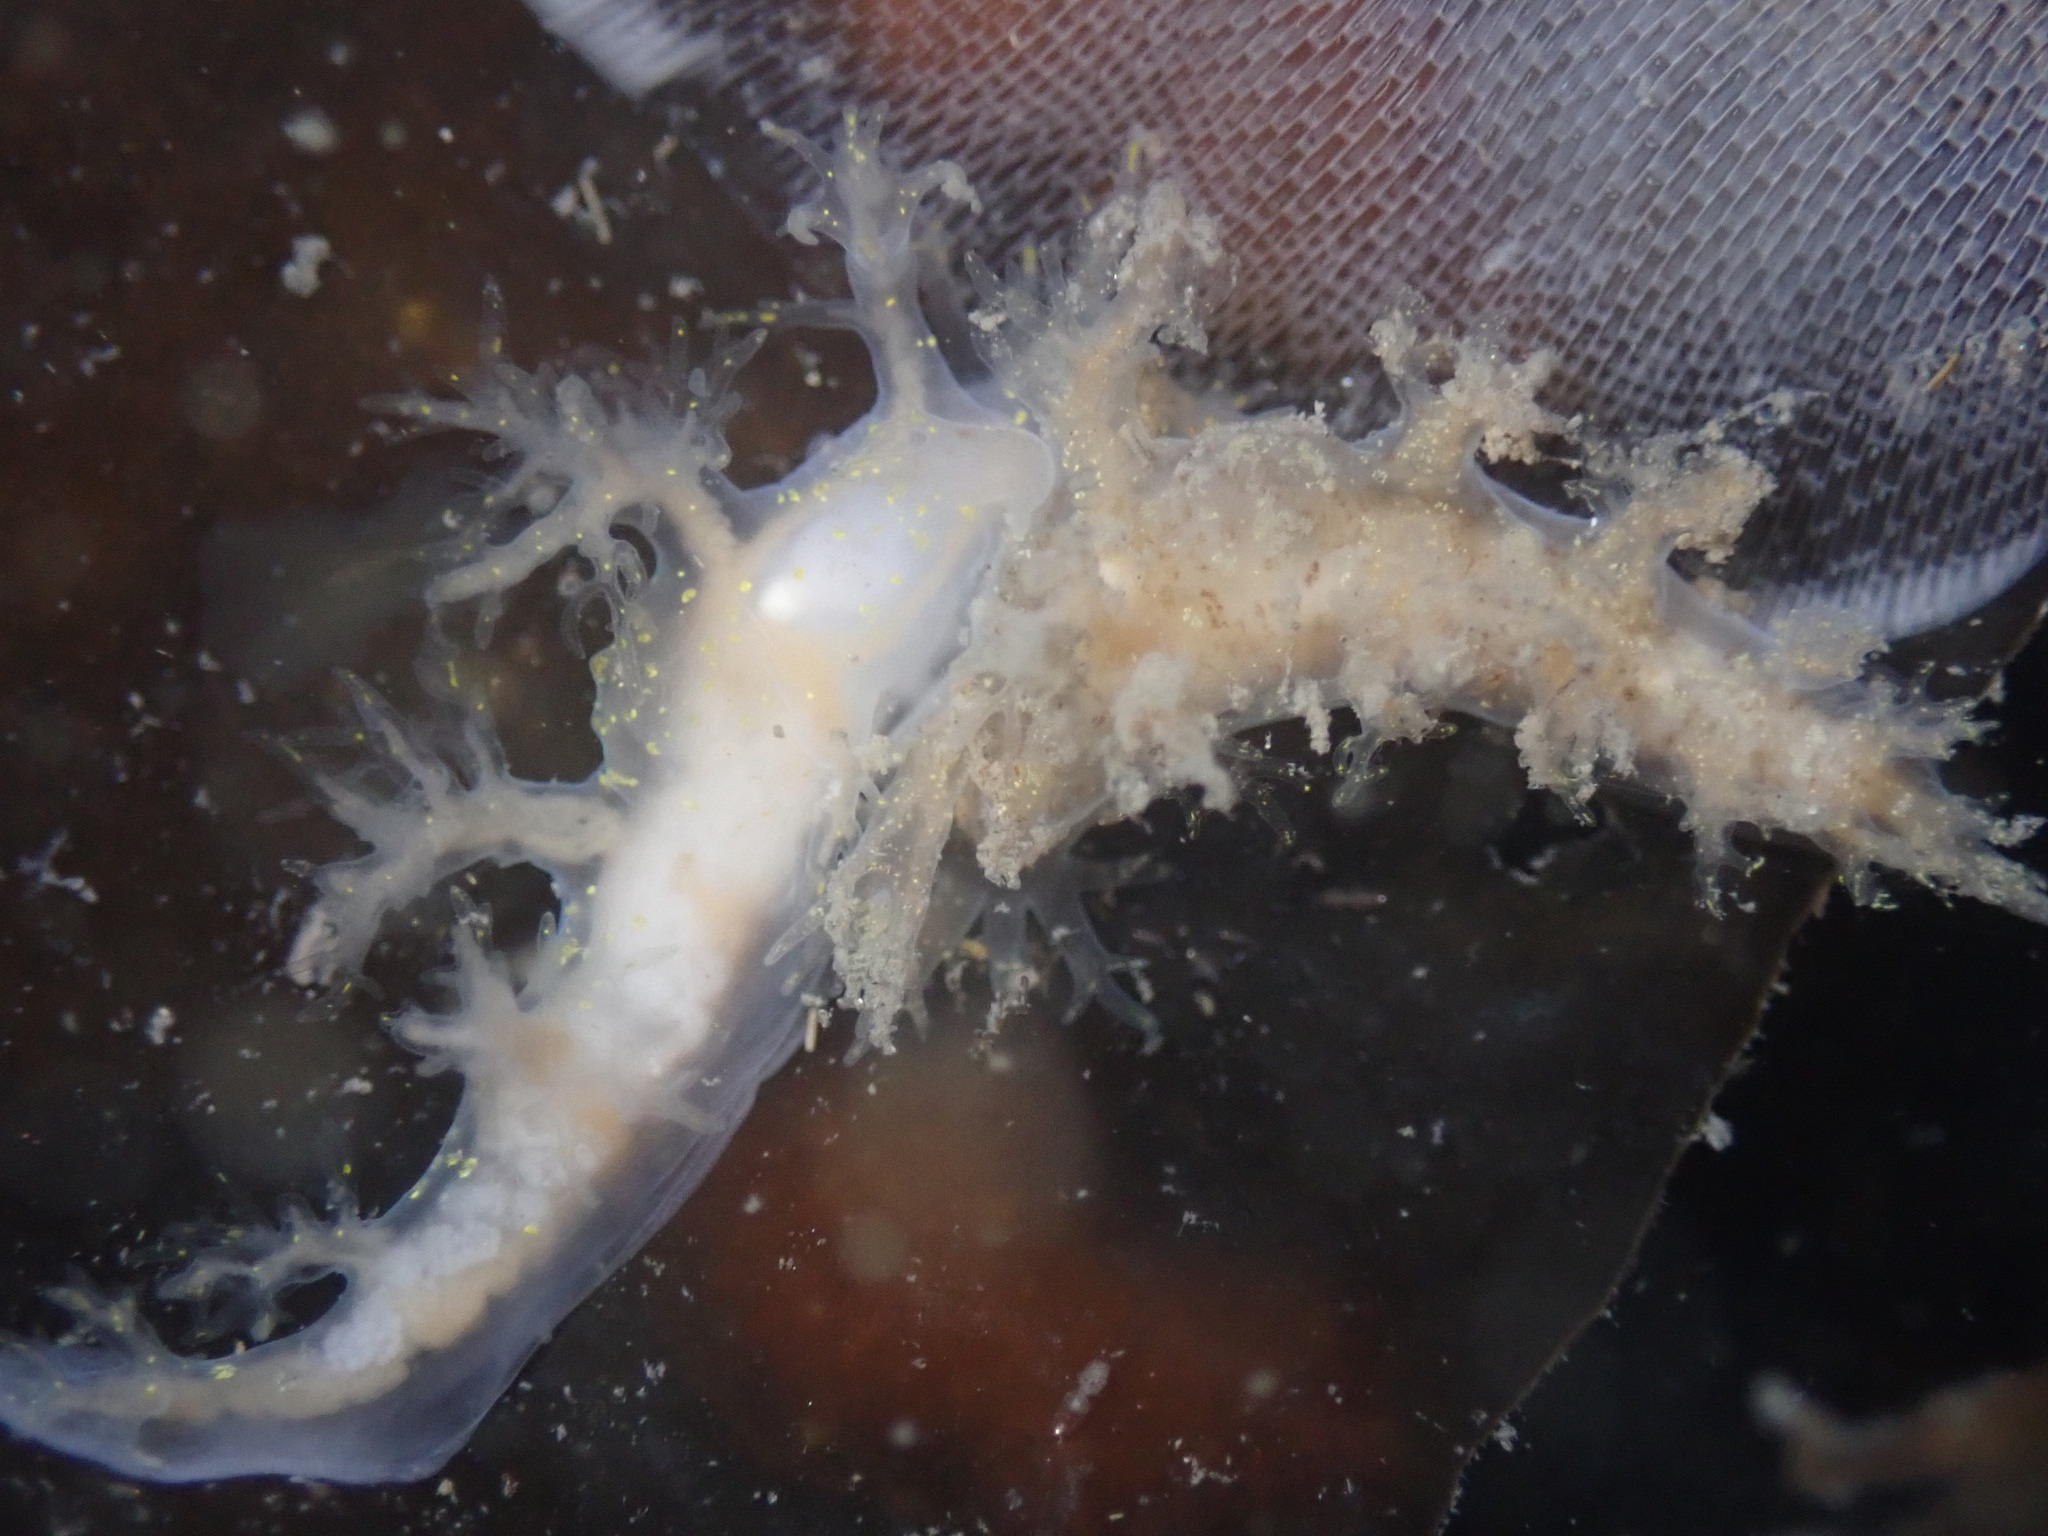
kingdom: Animalia
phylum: Mollusca
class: Gastropoda
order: Nudibranchia
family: Dendronotidae
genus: Dendronotus
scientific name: Dendronotus venustus
